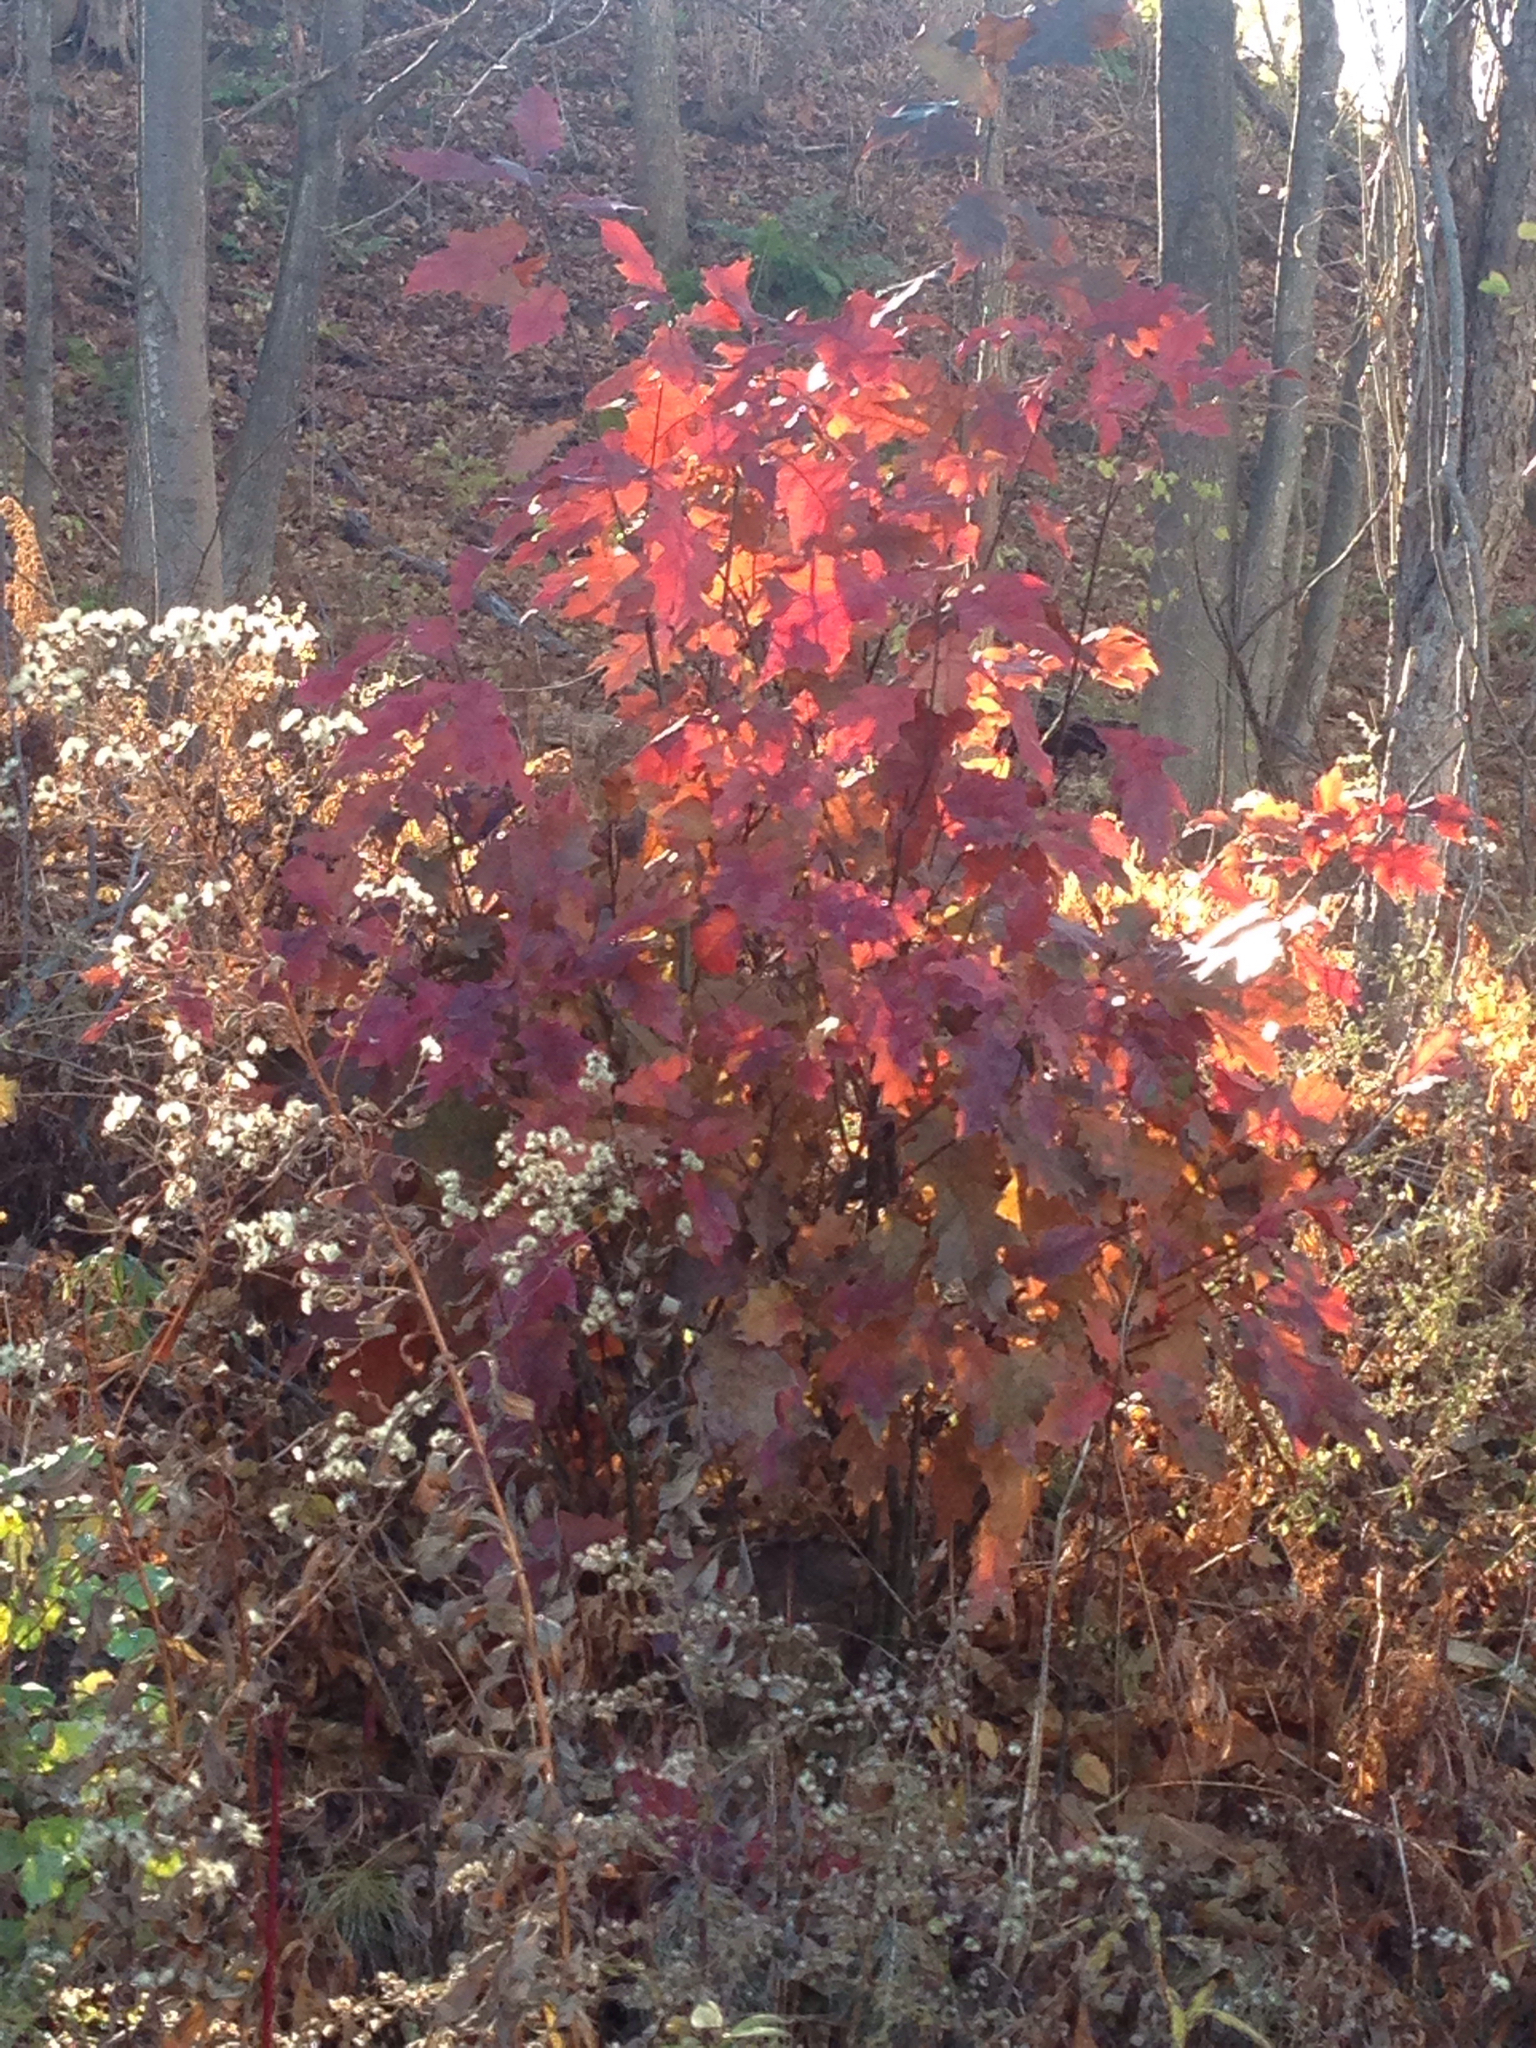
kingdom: Plantae
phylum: Tracheophyta
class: Magnoliopsida
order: Fagales
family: Fagaceae
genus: Quercus
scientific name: Quercus rubra
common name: Red oak
